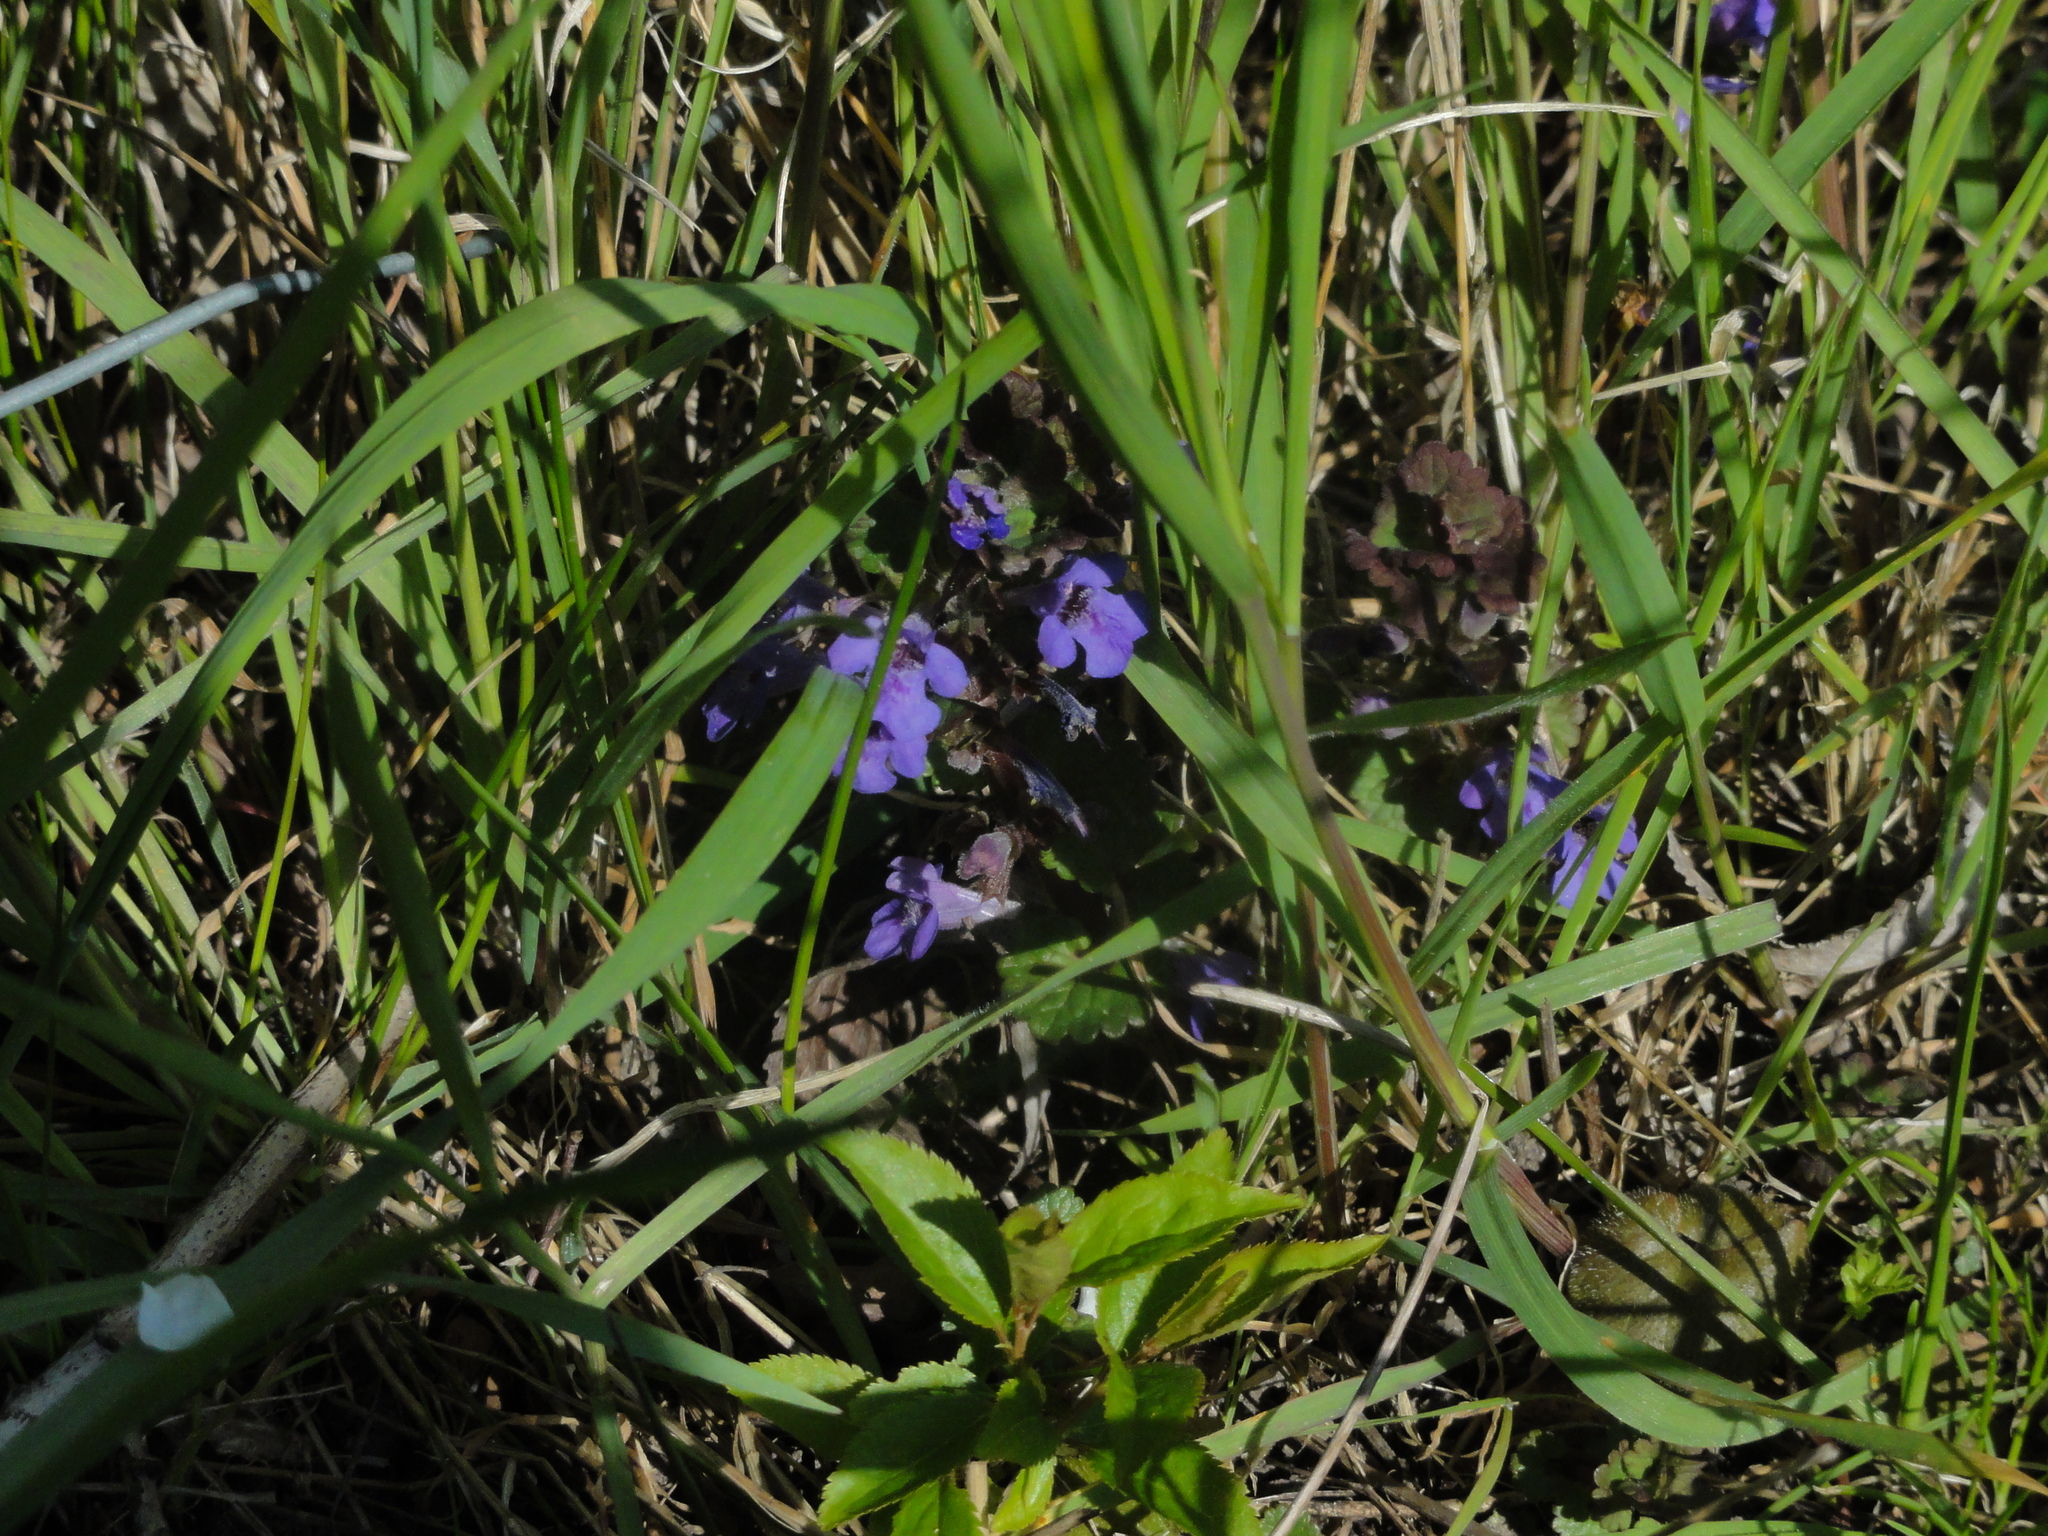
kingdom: Plantae
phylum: Tracheophyta
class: Magnoliopsida
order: Lamiales
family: Lamiaceae
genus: Glechoma
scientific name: Glechoma hederacea
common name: Ground ivy
